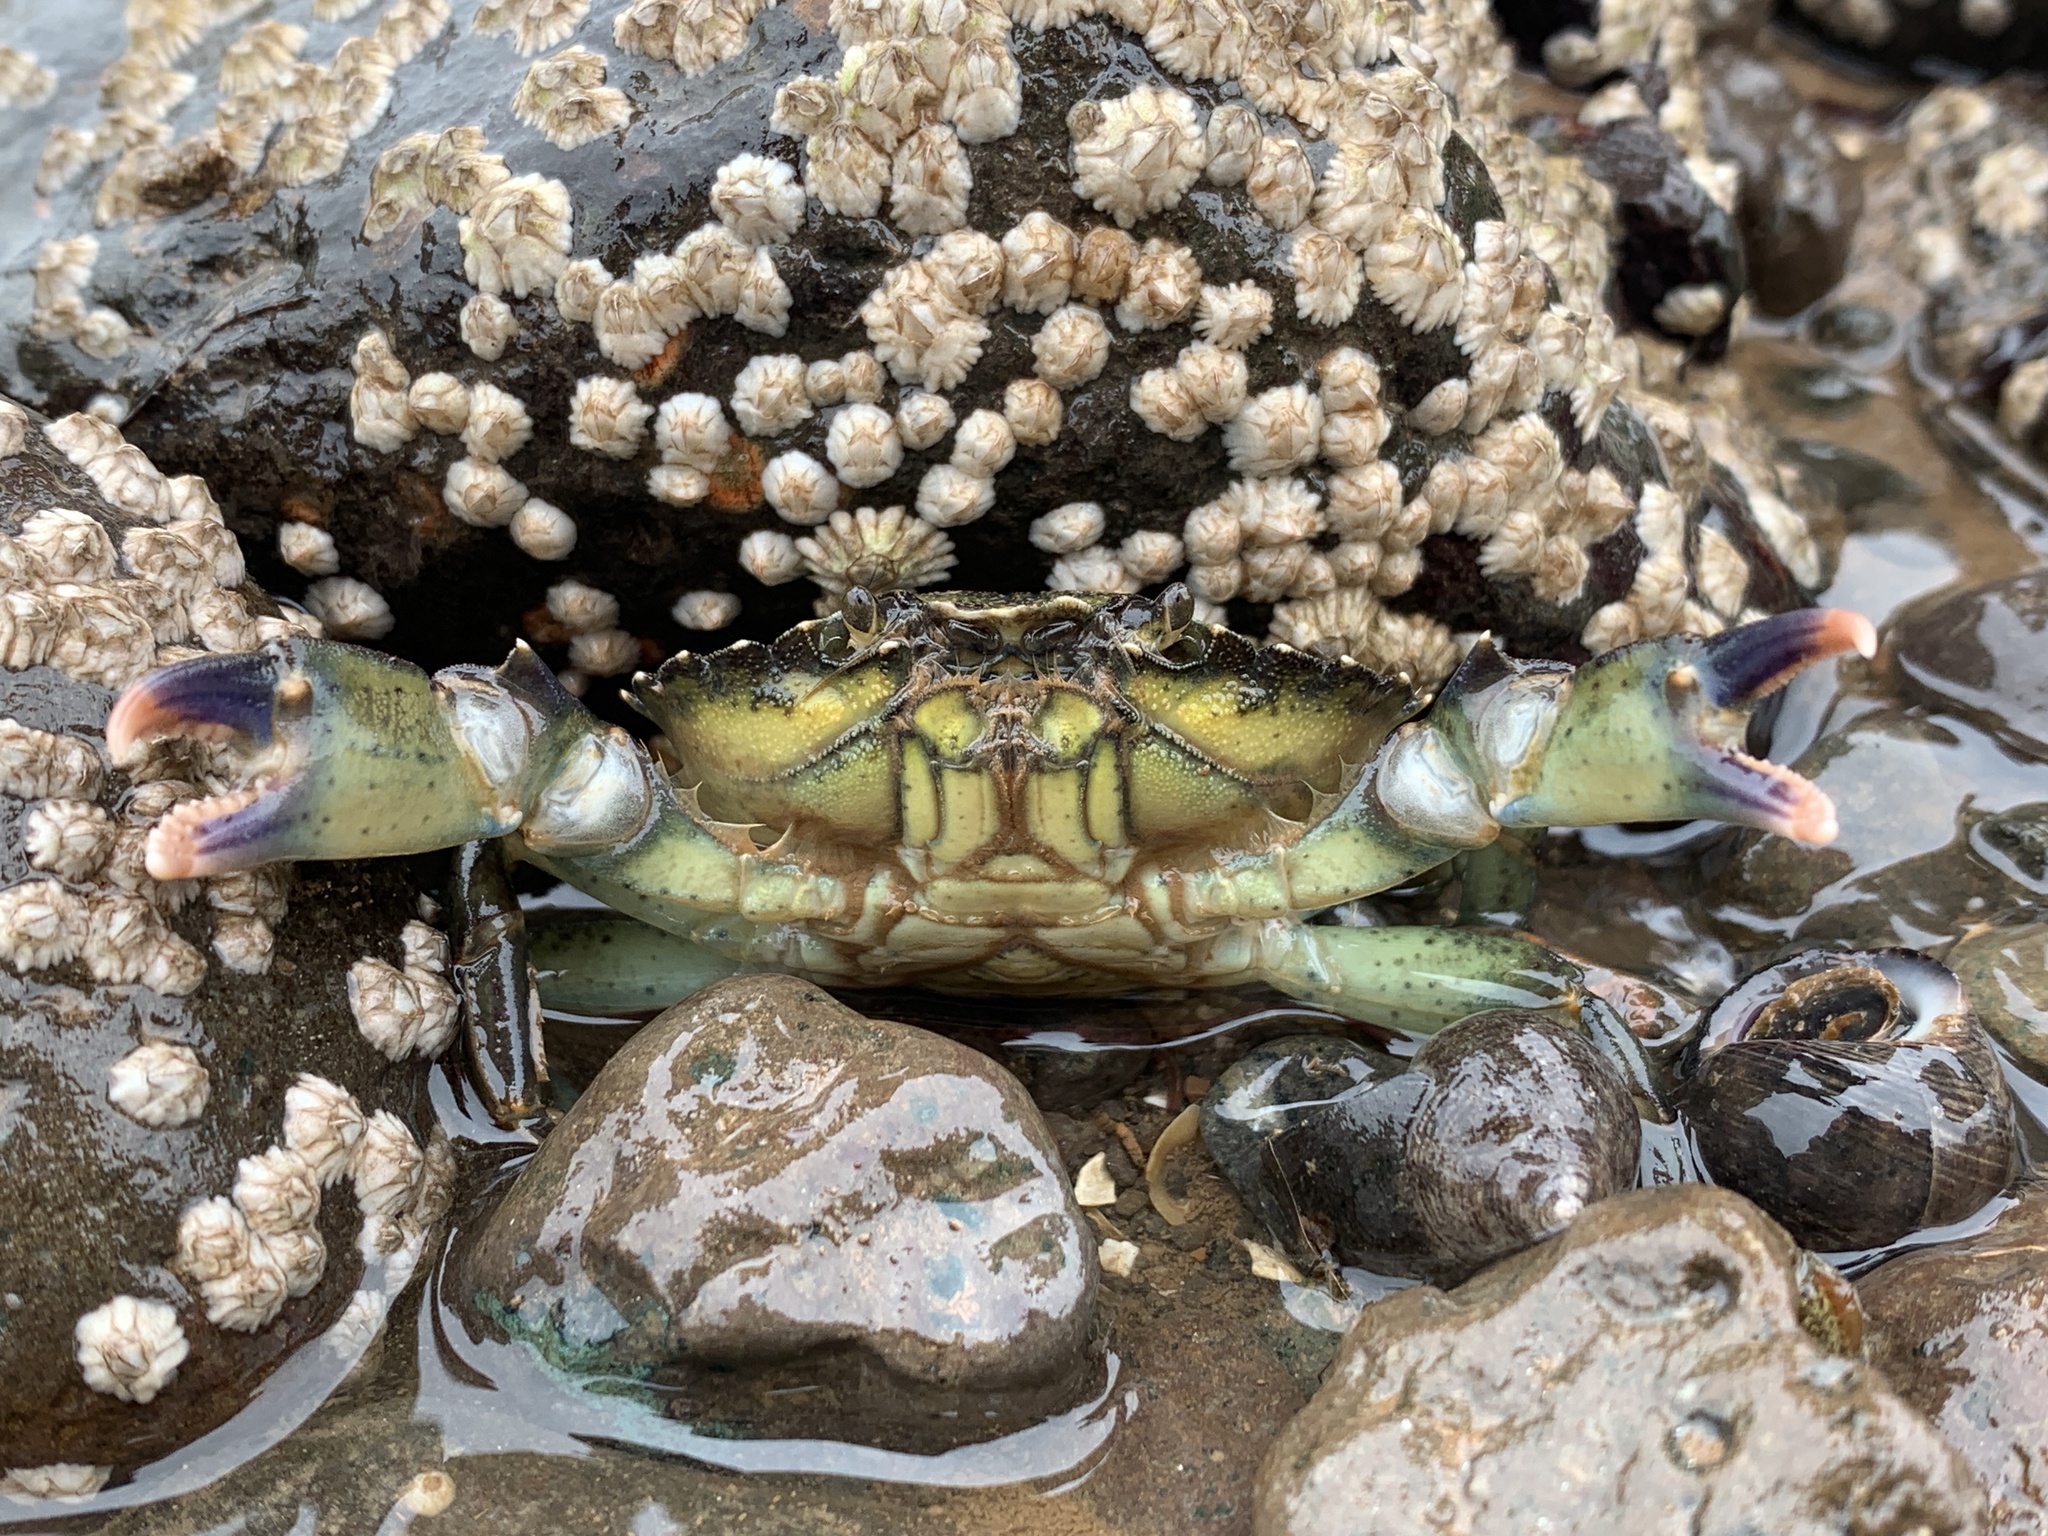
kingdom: Animalia
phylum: Arthropoda
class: Malacostraca
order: Decapoda
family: Carcinidae
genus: Carcinus
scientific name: Carcinus maenas
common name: European green crab
